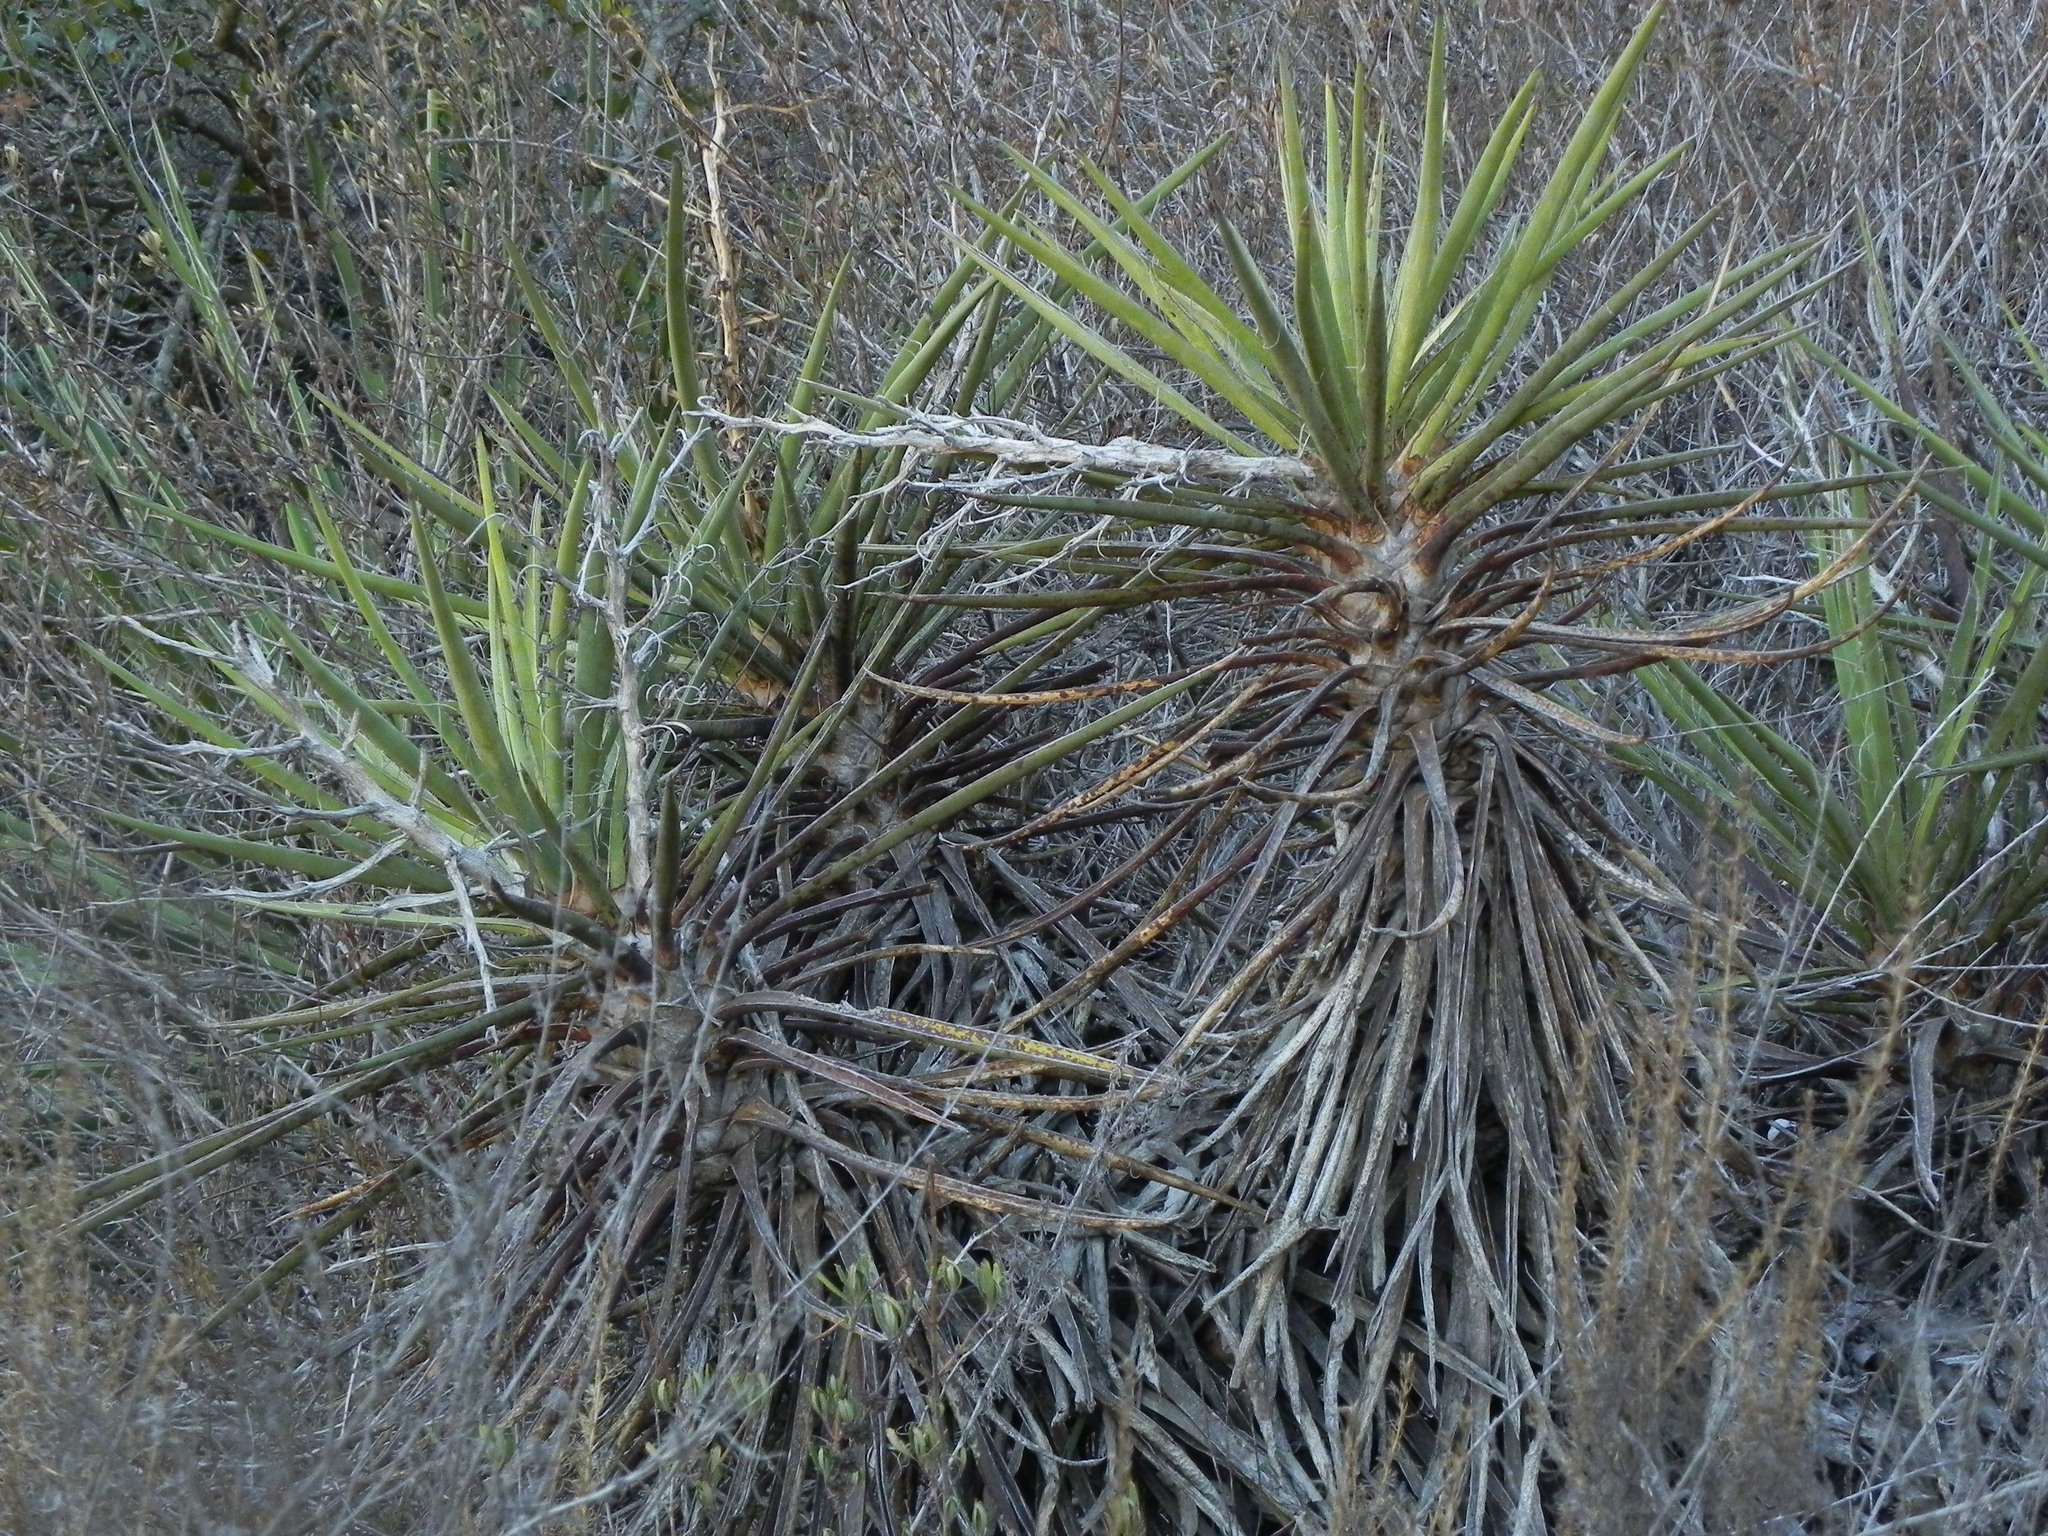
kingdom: Plantae
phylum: Tracheophyta
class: Liliopsida
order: Asparagales
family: Asparagaceae
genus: Yucca
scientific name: Yucca schidigera
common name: Mojave yucca
